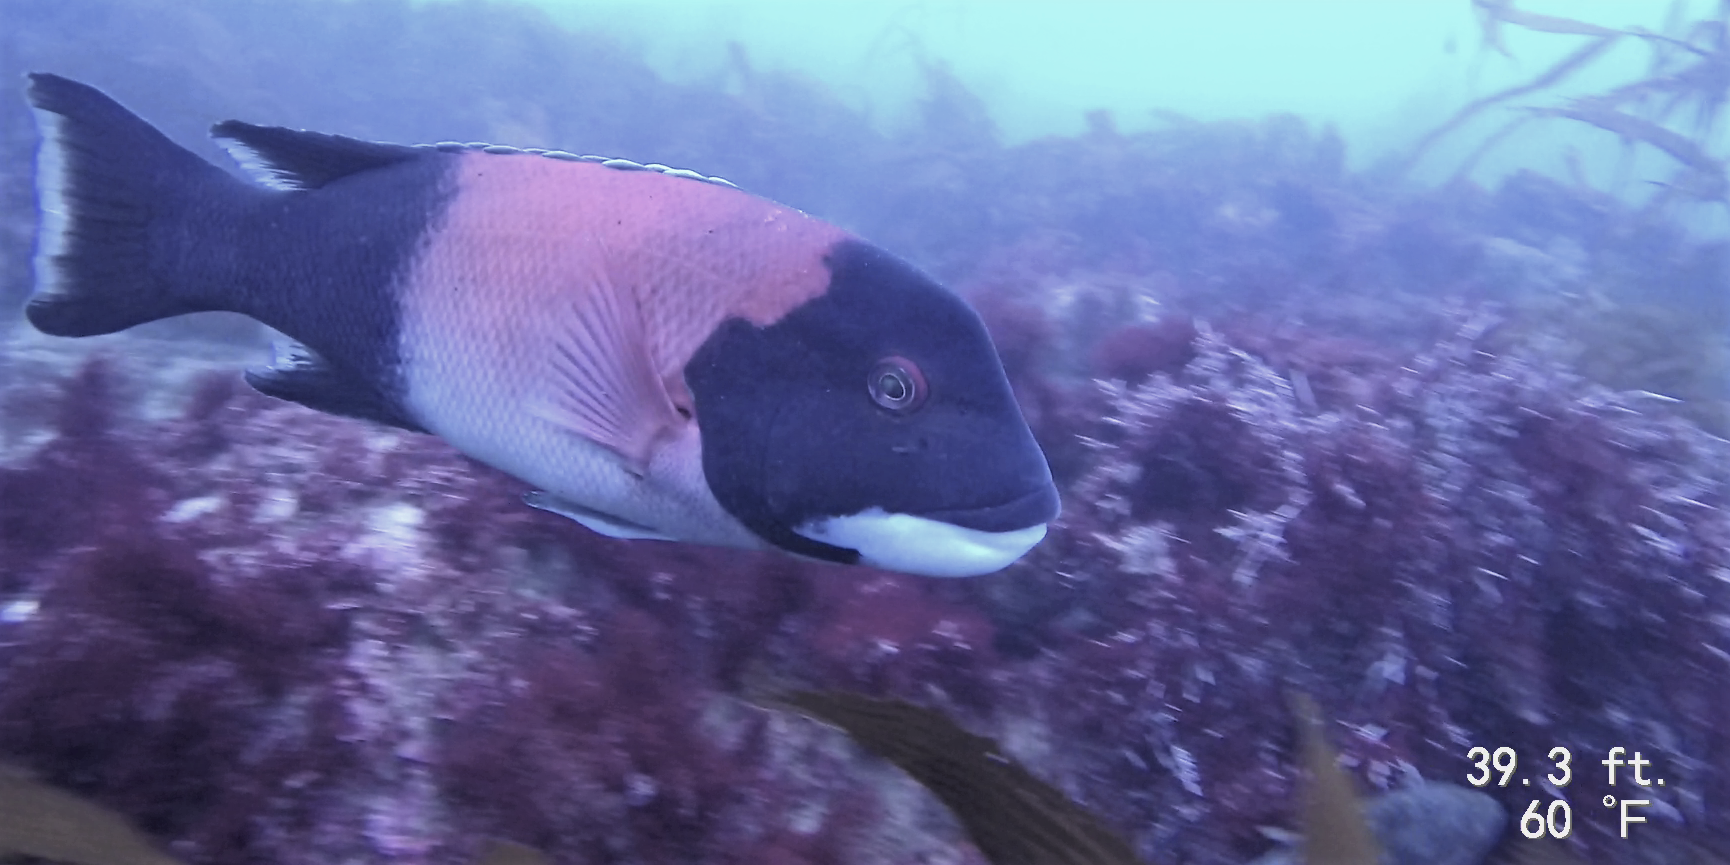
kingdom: Animalia
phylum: Chordata
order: Perciformes
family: Labridae
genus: Semicossyphus
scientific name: Semicossyphus pulcher
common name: California sheephead
